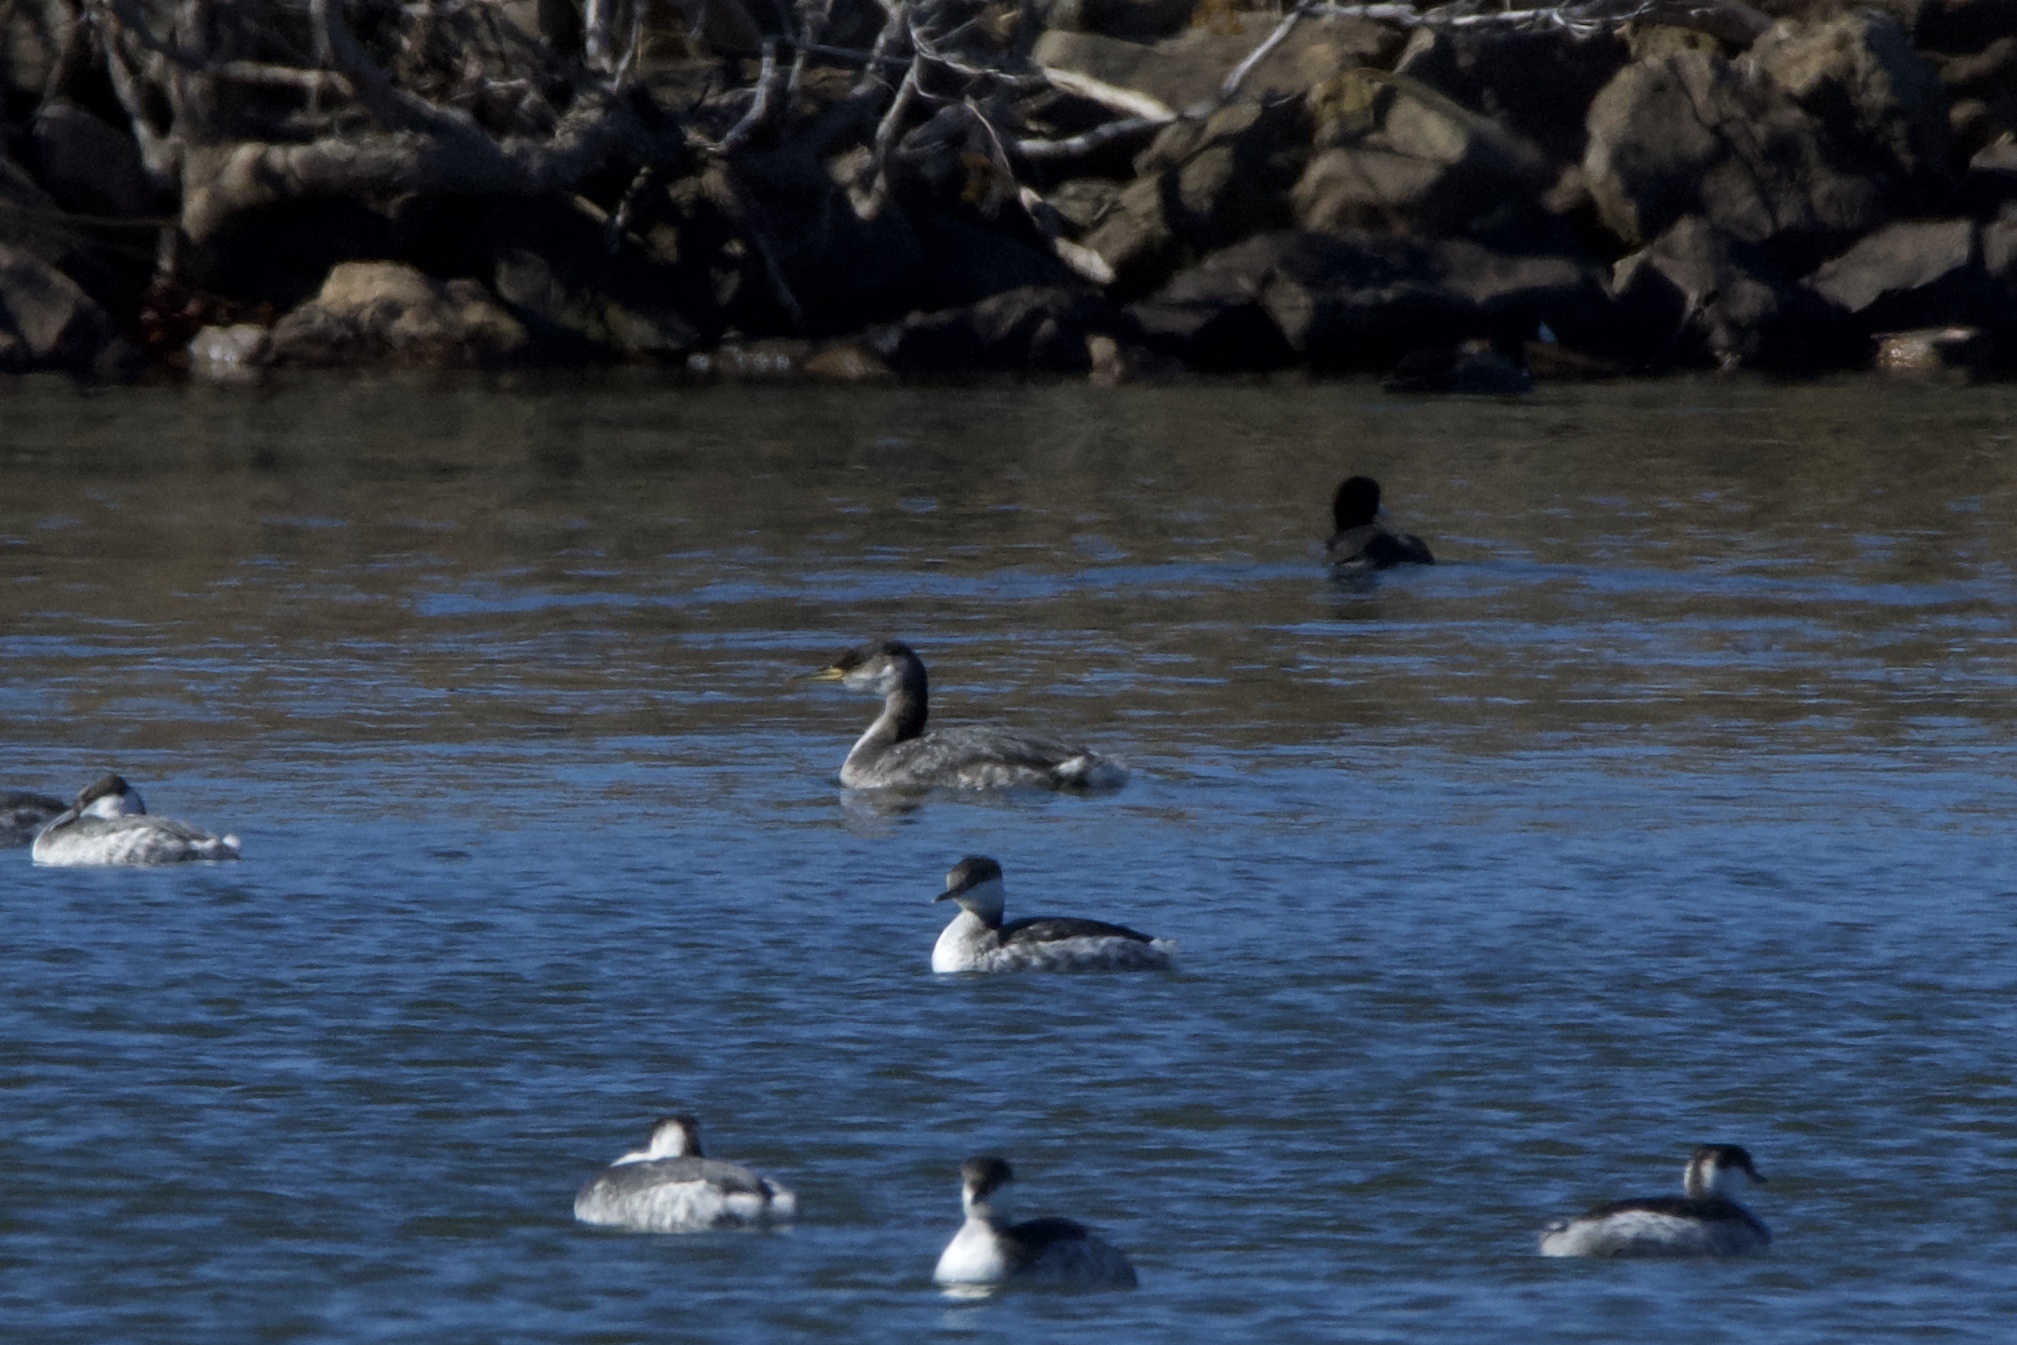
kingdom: Animalia
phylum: Chordata
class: Aves
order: Podicipediformes
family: Podicipedidae
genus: Podiceps
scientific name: Podiceps grisegena
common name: Red-necked grebe
